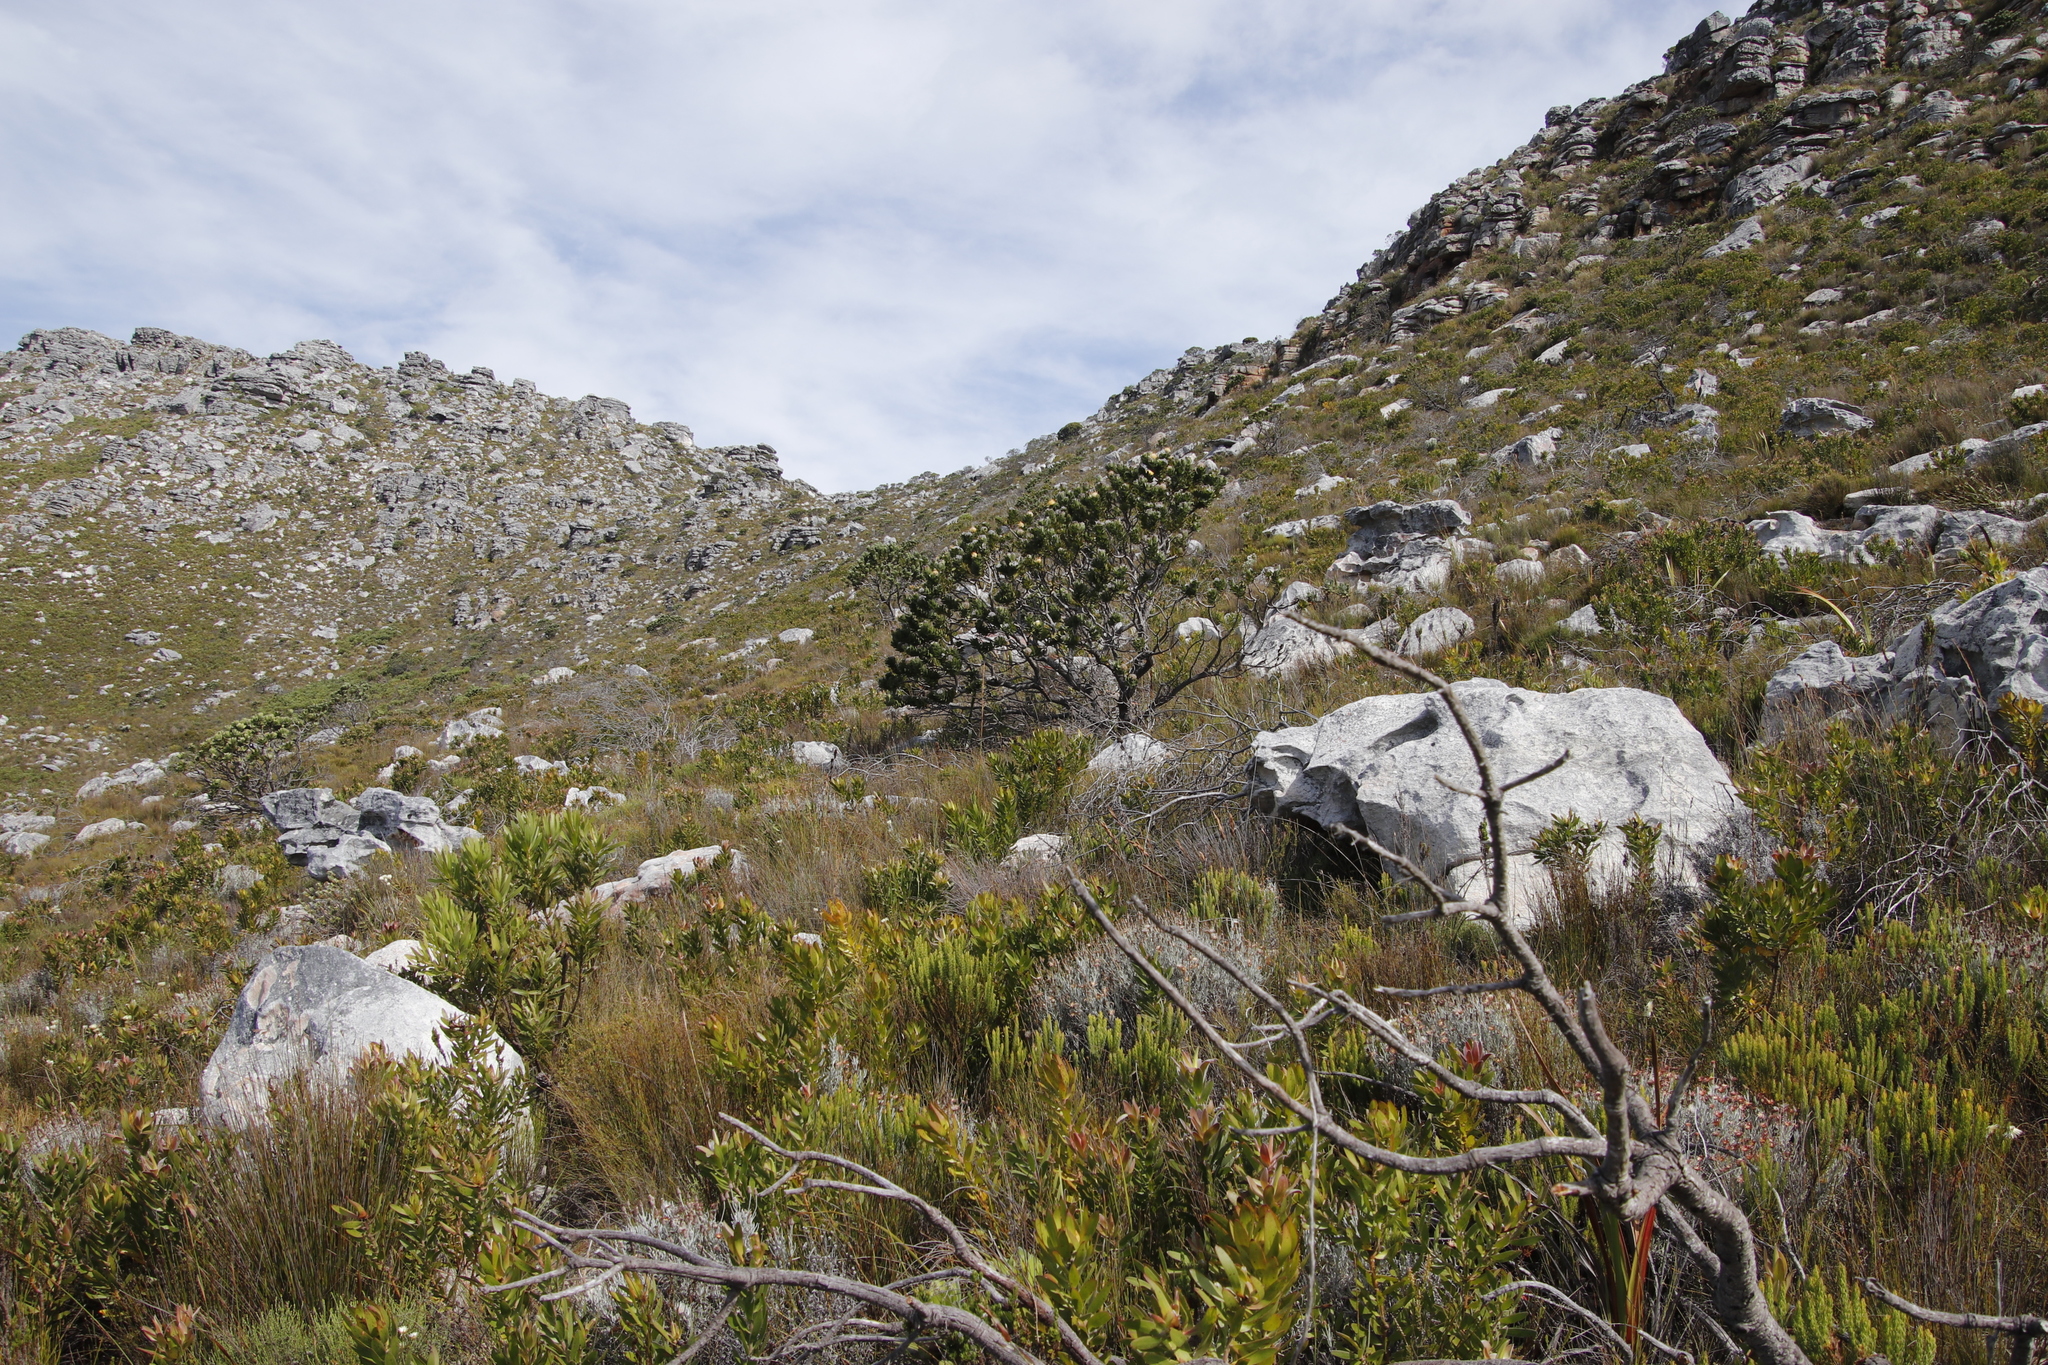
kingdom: Plantae
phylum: Tracheophyta
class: Magnoliopsida
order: Proteales
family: Proteaceae
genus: Leucospermum
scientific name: Leucospermum conocarpodendron
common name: Tree pincushion
